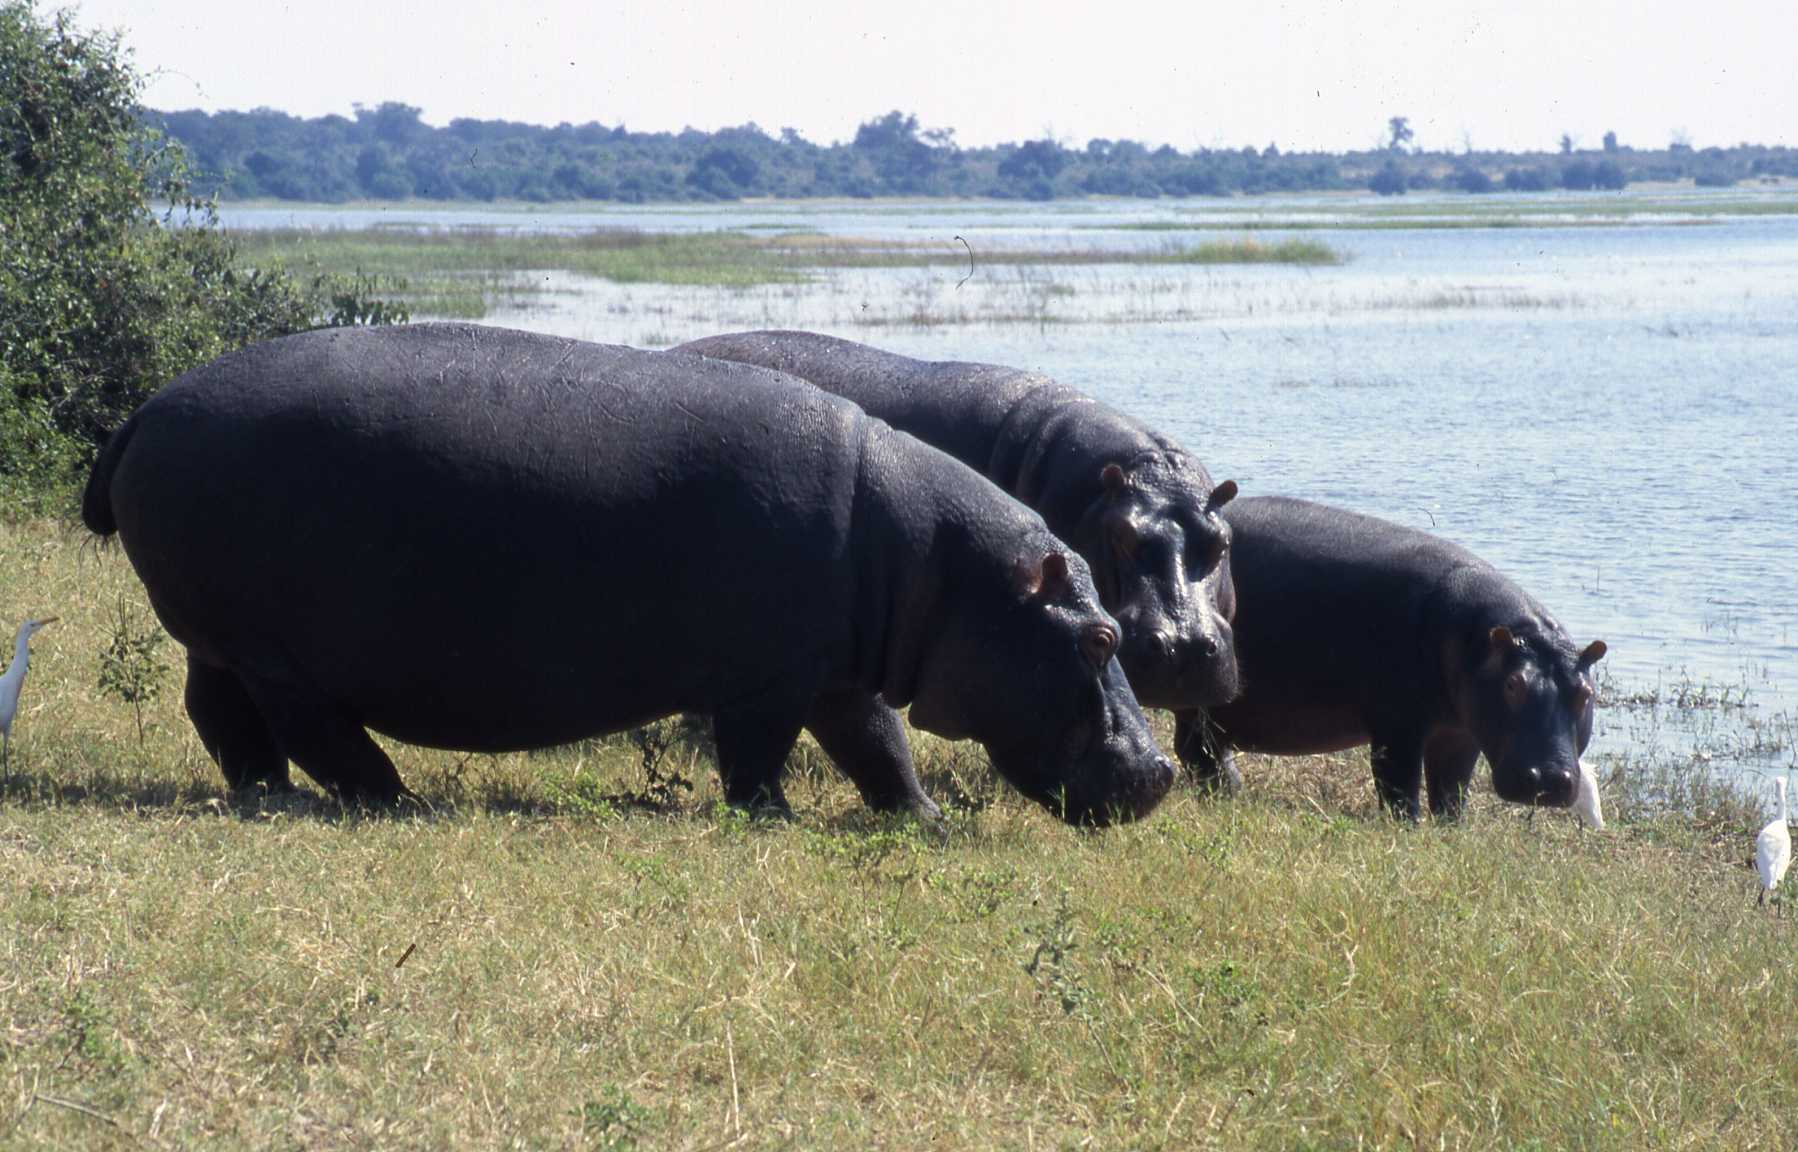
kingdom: Animalia
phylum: Chordata
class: Mammalia
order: Artiodactyla
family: Hippopotamidae
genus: Hippopotamus
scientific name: Hippopotamus amphibius
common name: Common hippopotamus
